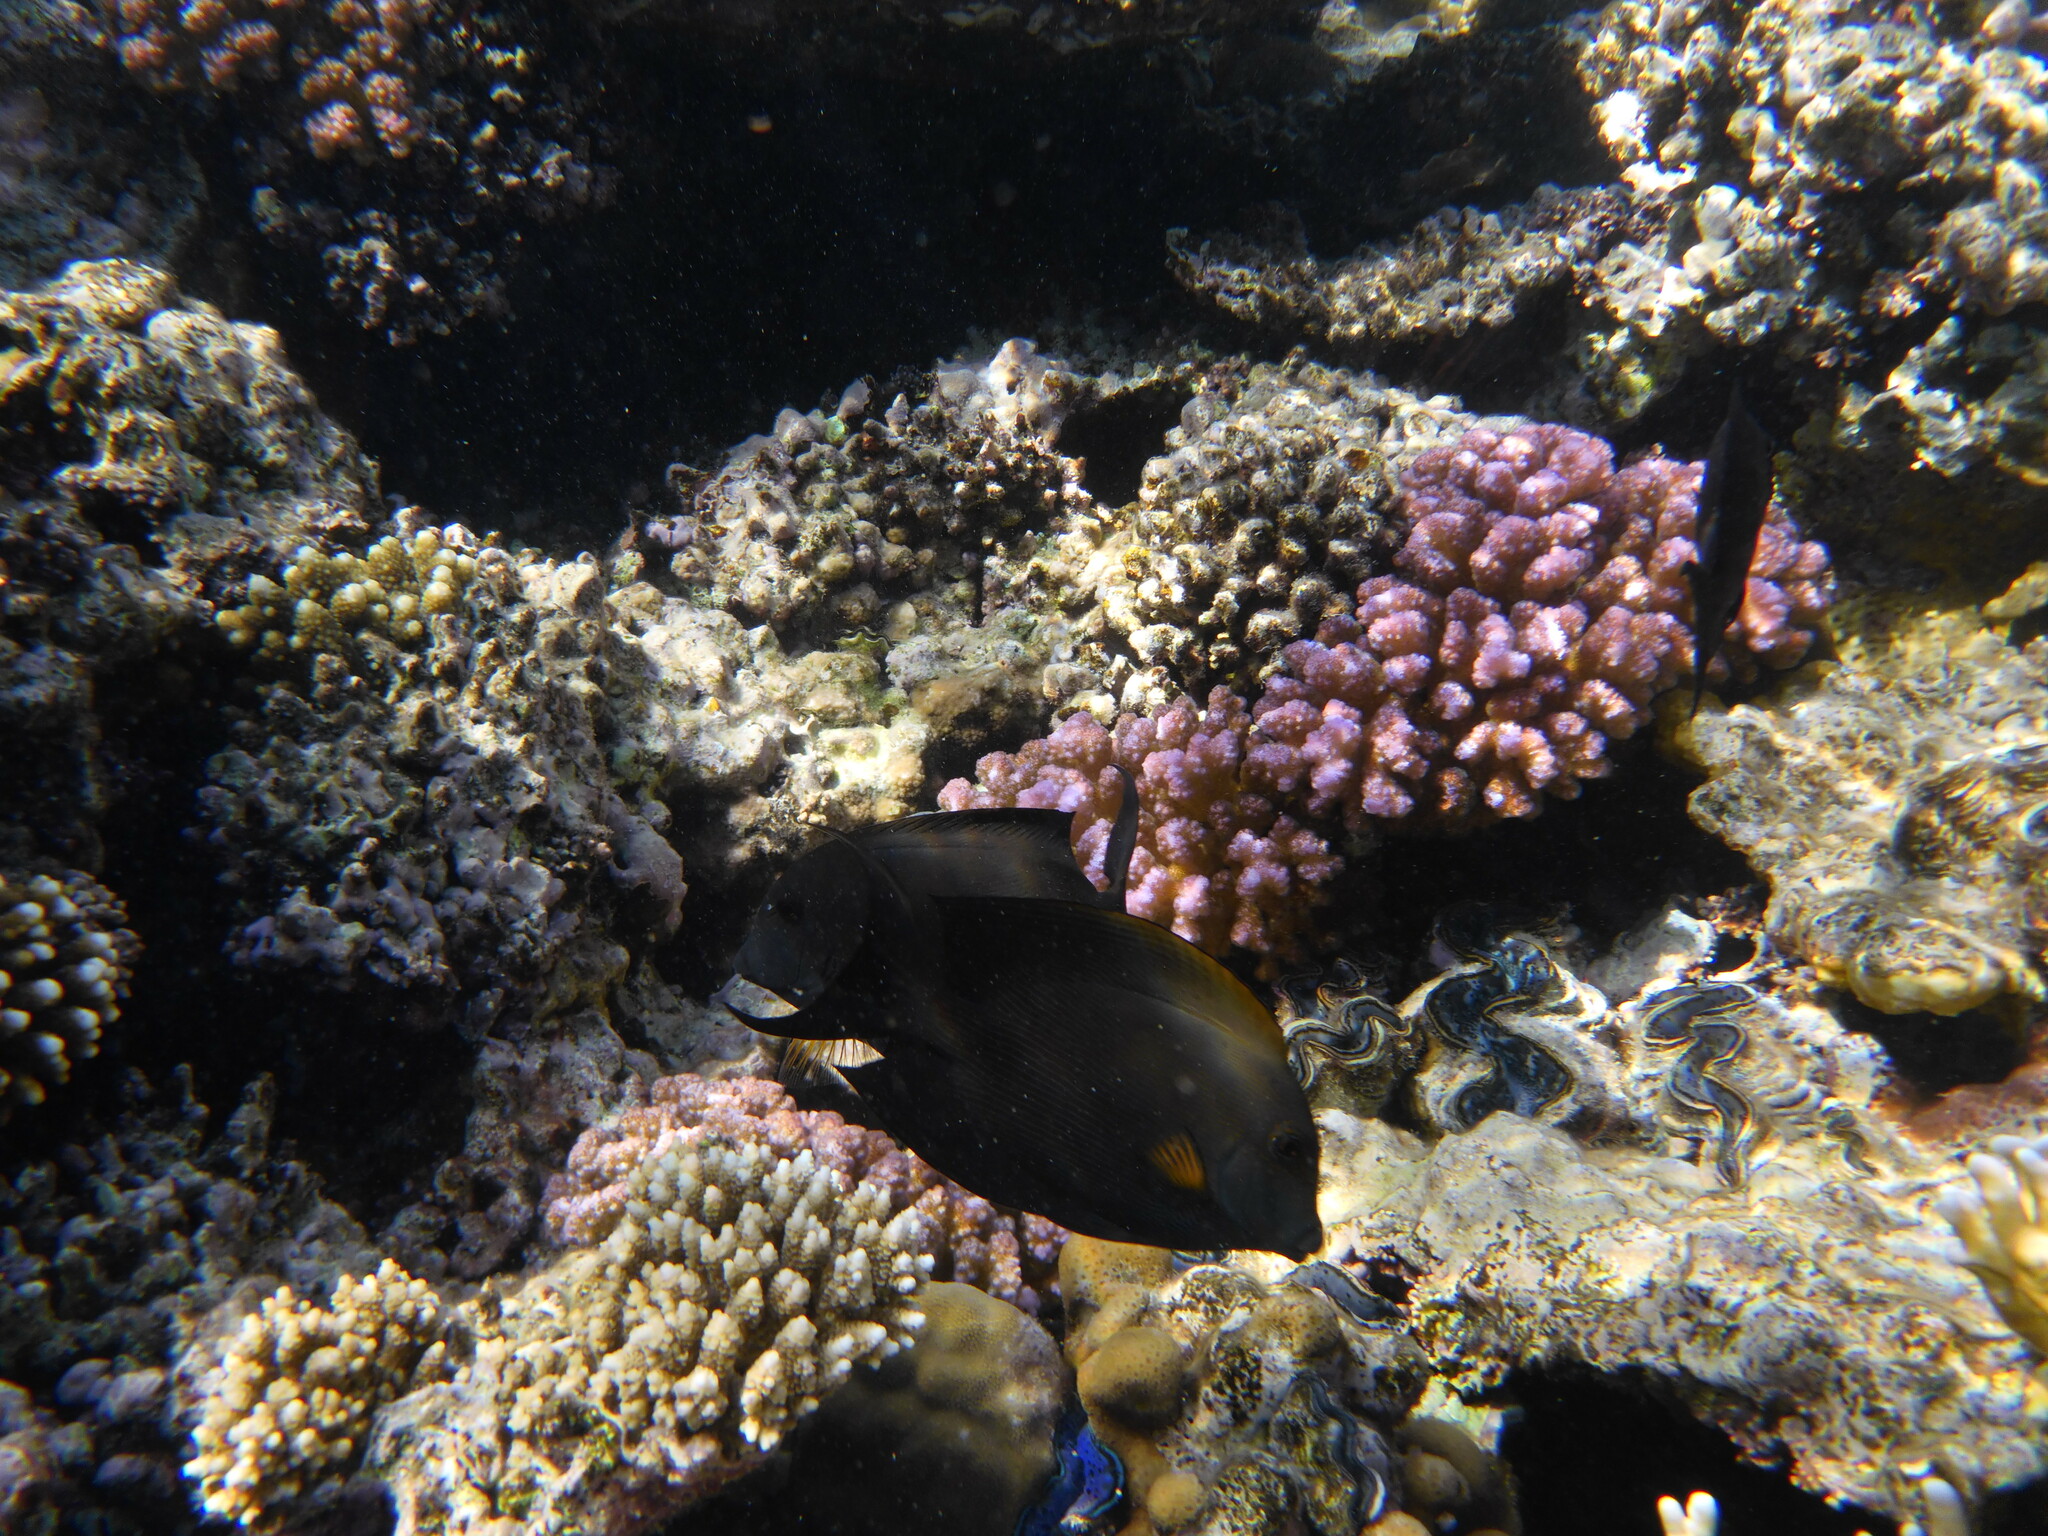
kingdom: Animalia
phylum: Chordata
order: Perciformes
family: Acanthuridae
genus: Ctenochaetus
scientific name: Ctenochaetus striatus
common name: Bristle-toothed surgeonfish
